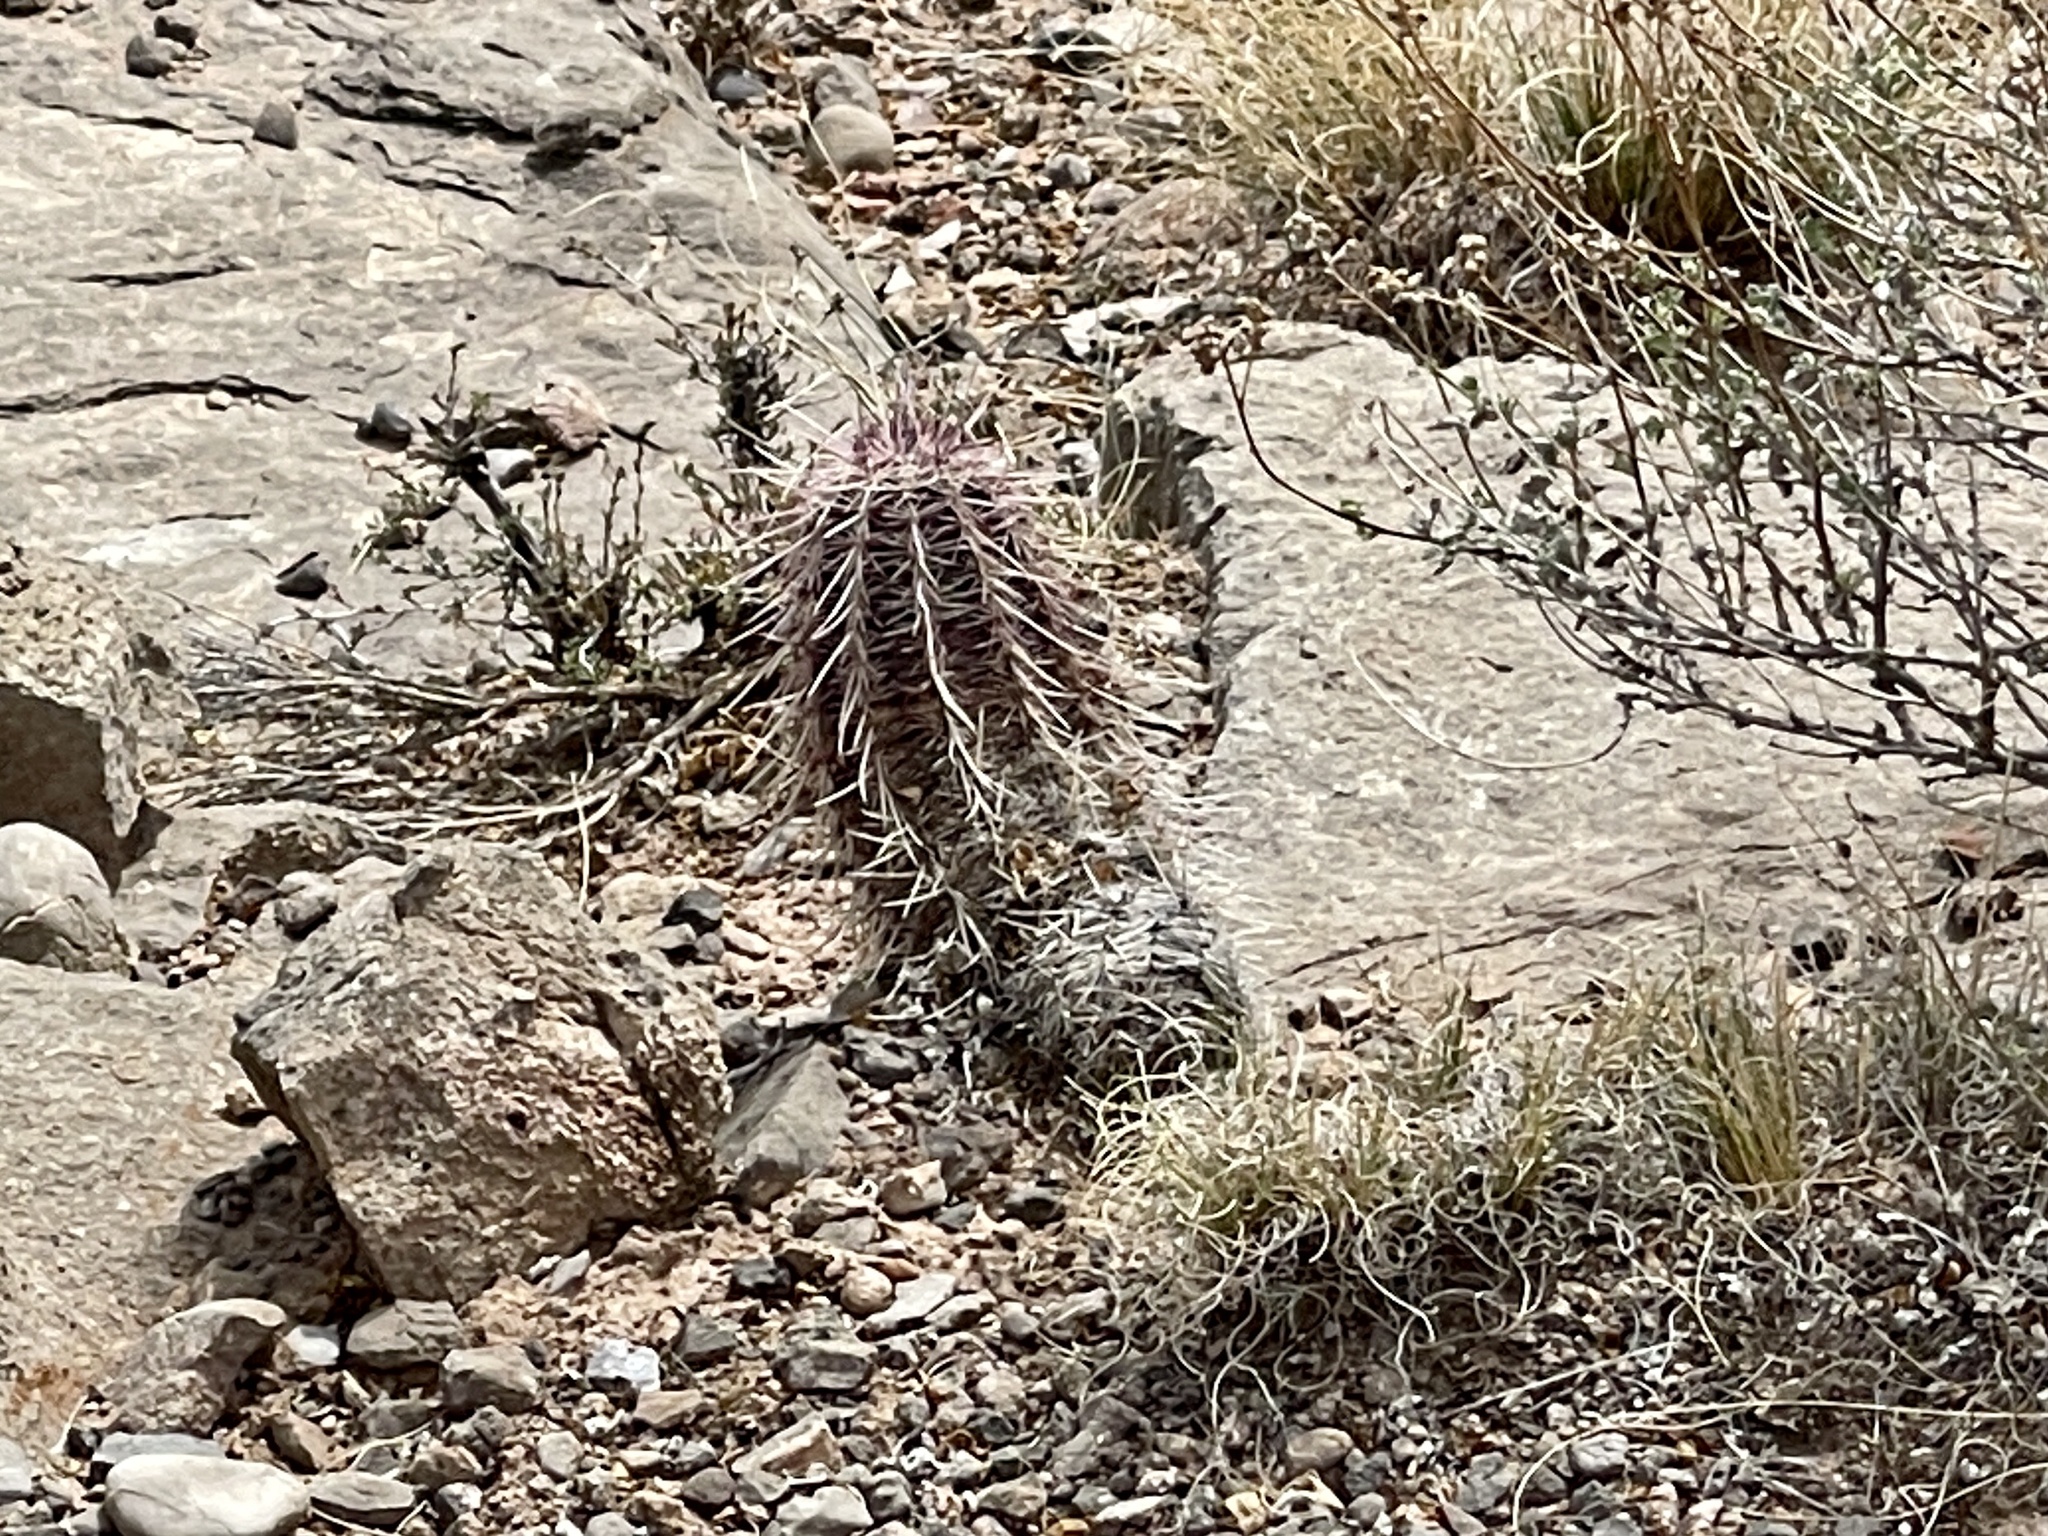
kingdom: Plantae
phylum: Tracheophyta
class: Magnoliopsida
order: Caryophyllales
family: Cactaceae
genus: Echinocereus
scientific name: Echinocereus viridiflorus
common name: Nylon hedgehog cactus
